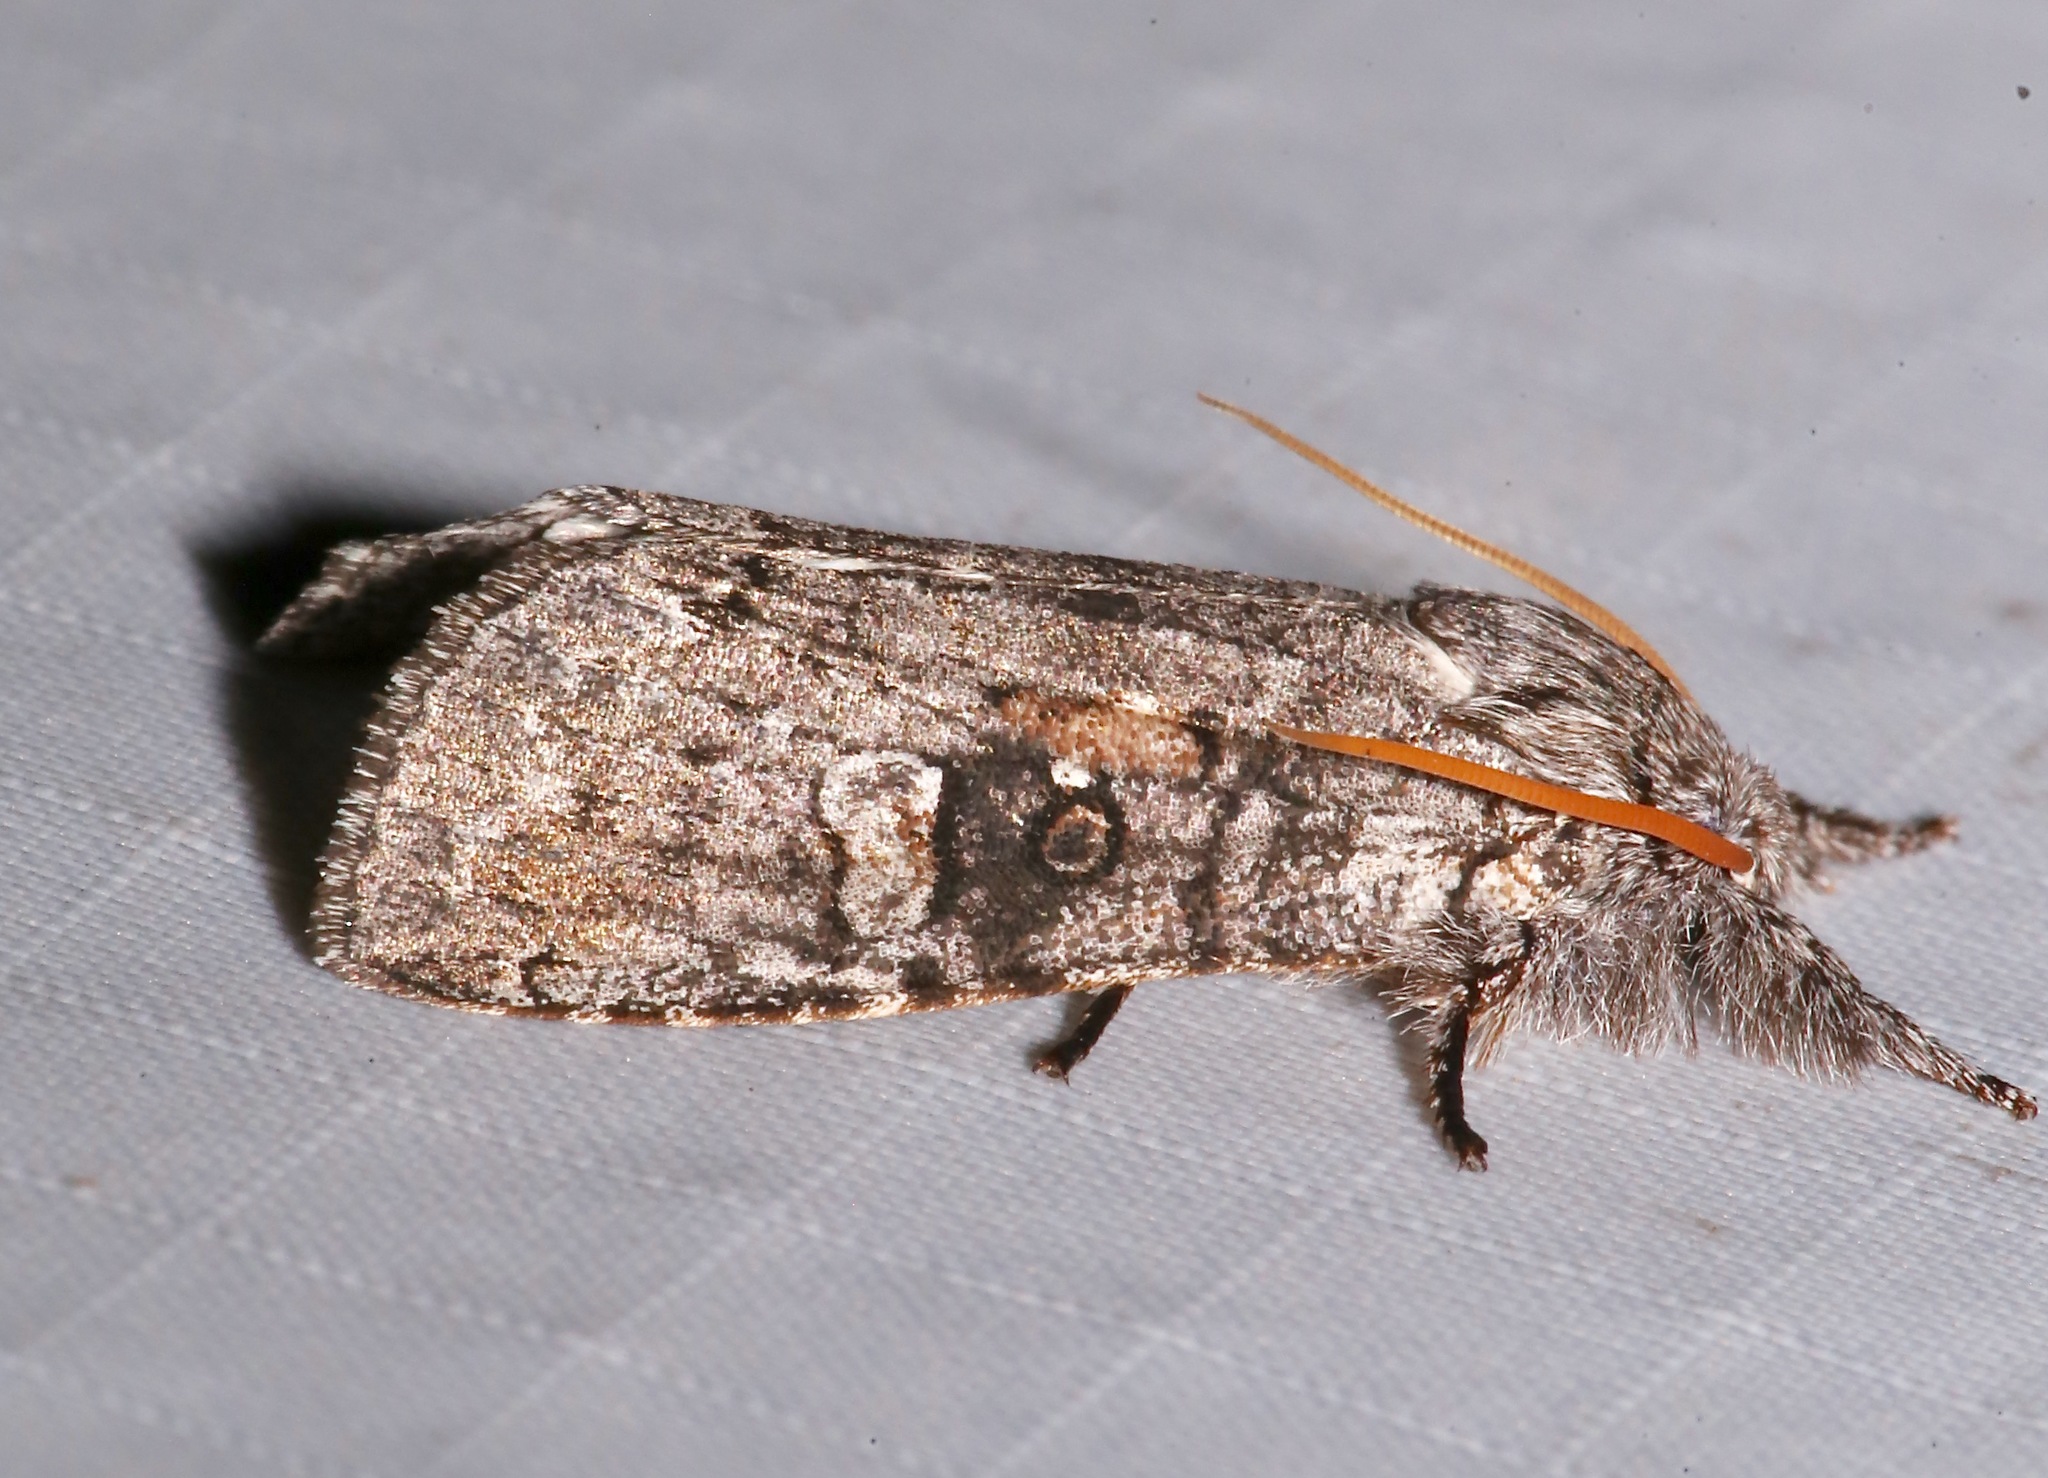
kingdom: Animalia
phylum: Arthropoda
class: Insecta
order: Lepidoptera
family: Noctuidae
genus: Meleneta
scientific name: Meleneta antennata
